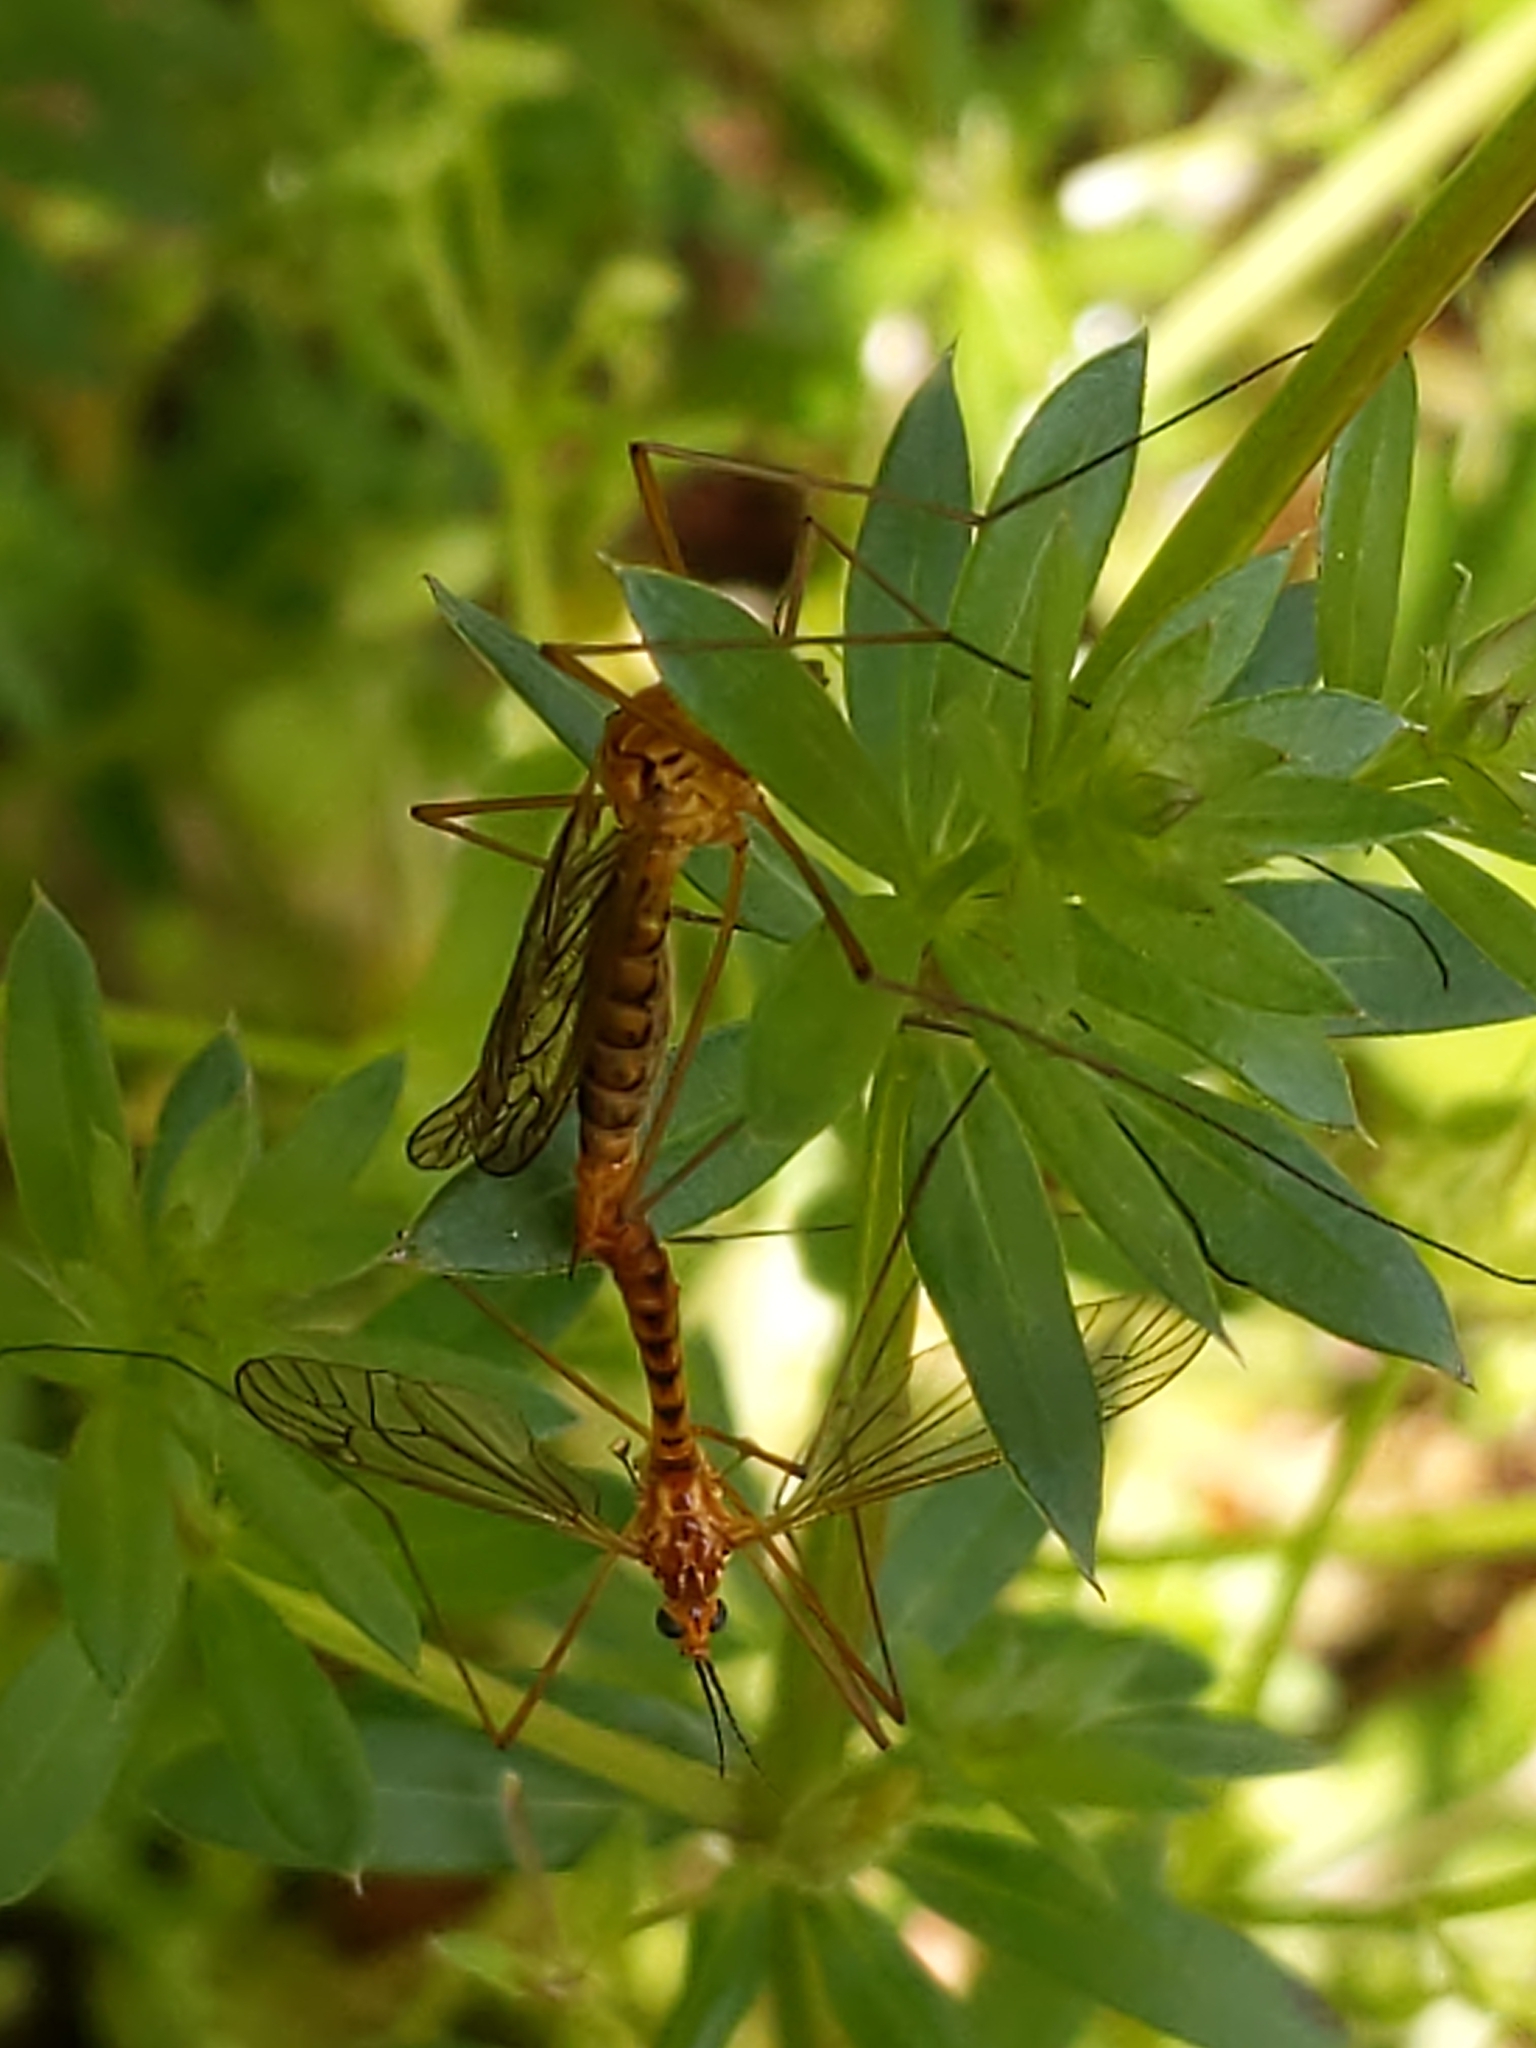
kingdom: Animalia
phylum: Arthropoda
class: Insecta
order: Diptera
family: Tipulidae
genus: Nephrotoma
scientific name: Nephrotoma ferruginea
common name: Ferruginous tiger crane fly
